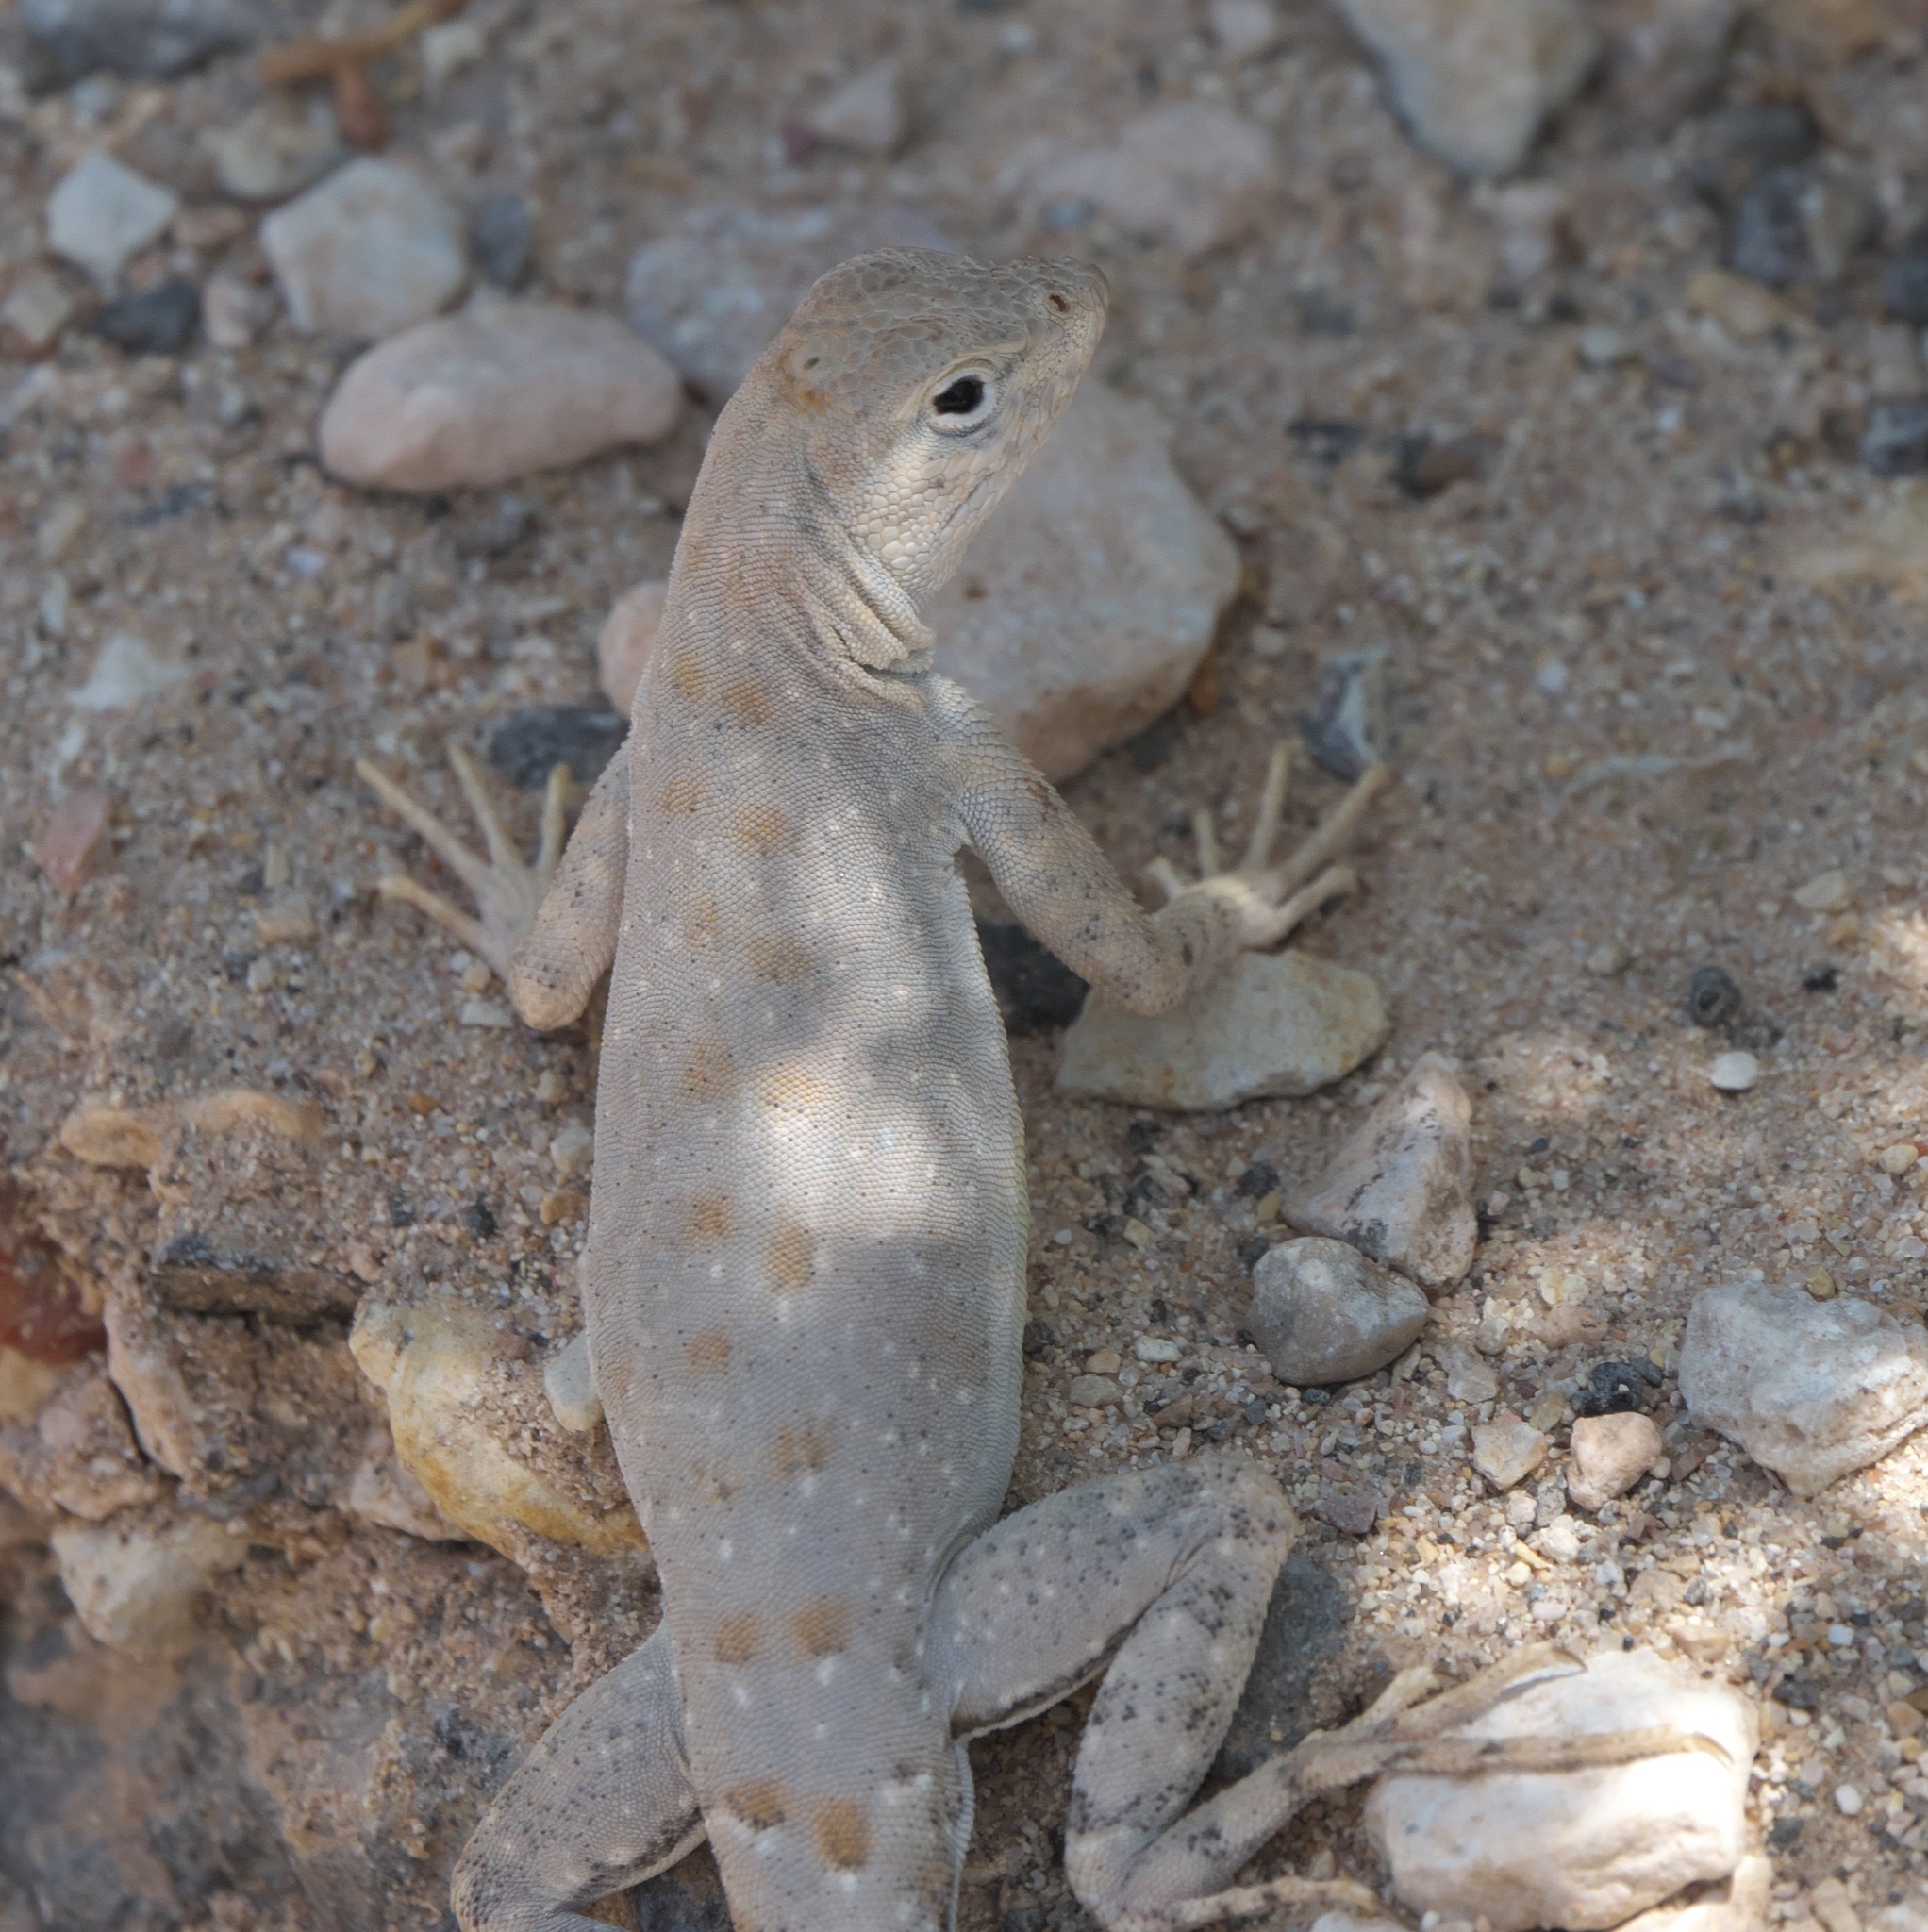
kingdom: Animalia
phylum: Chordata
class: Squamata
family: Phrynosomatidae
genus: Cophosaurus
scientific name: Cophosaurus texanus
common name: Greater earless lizard
